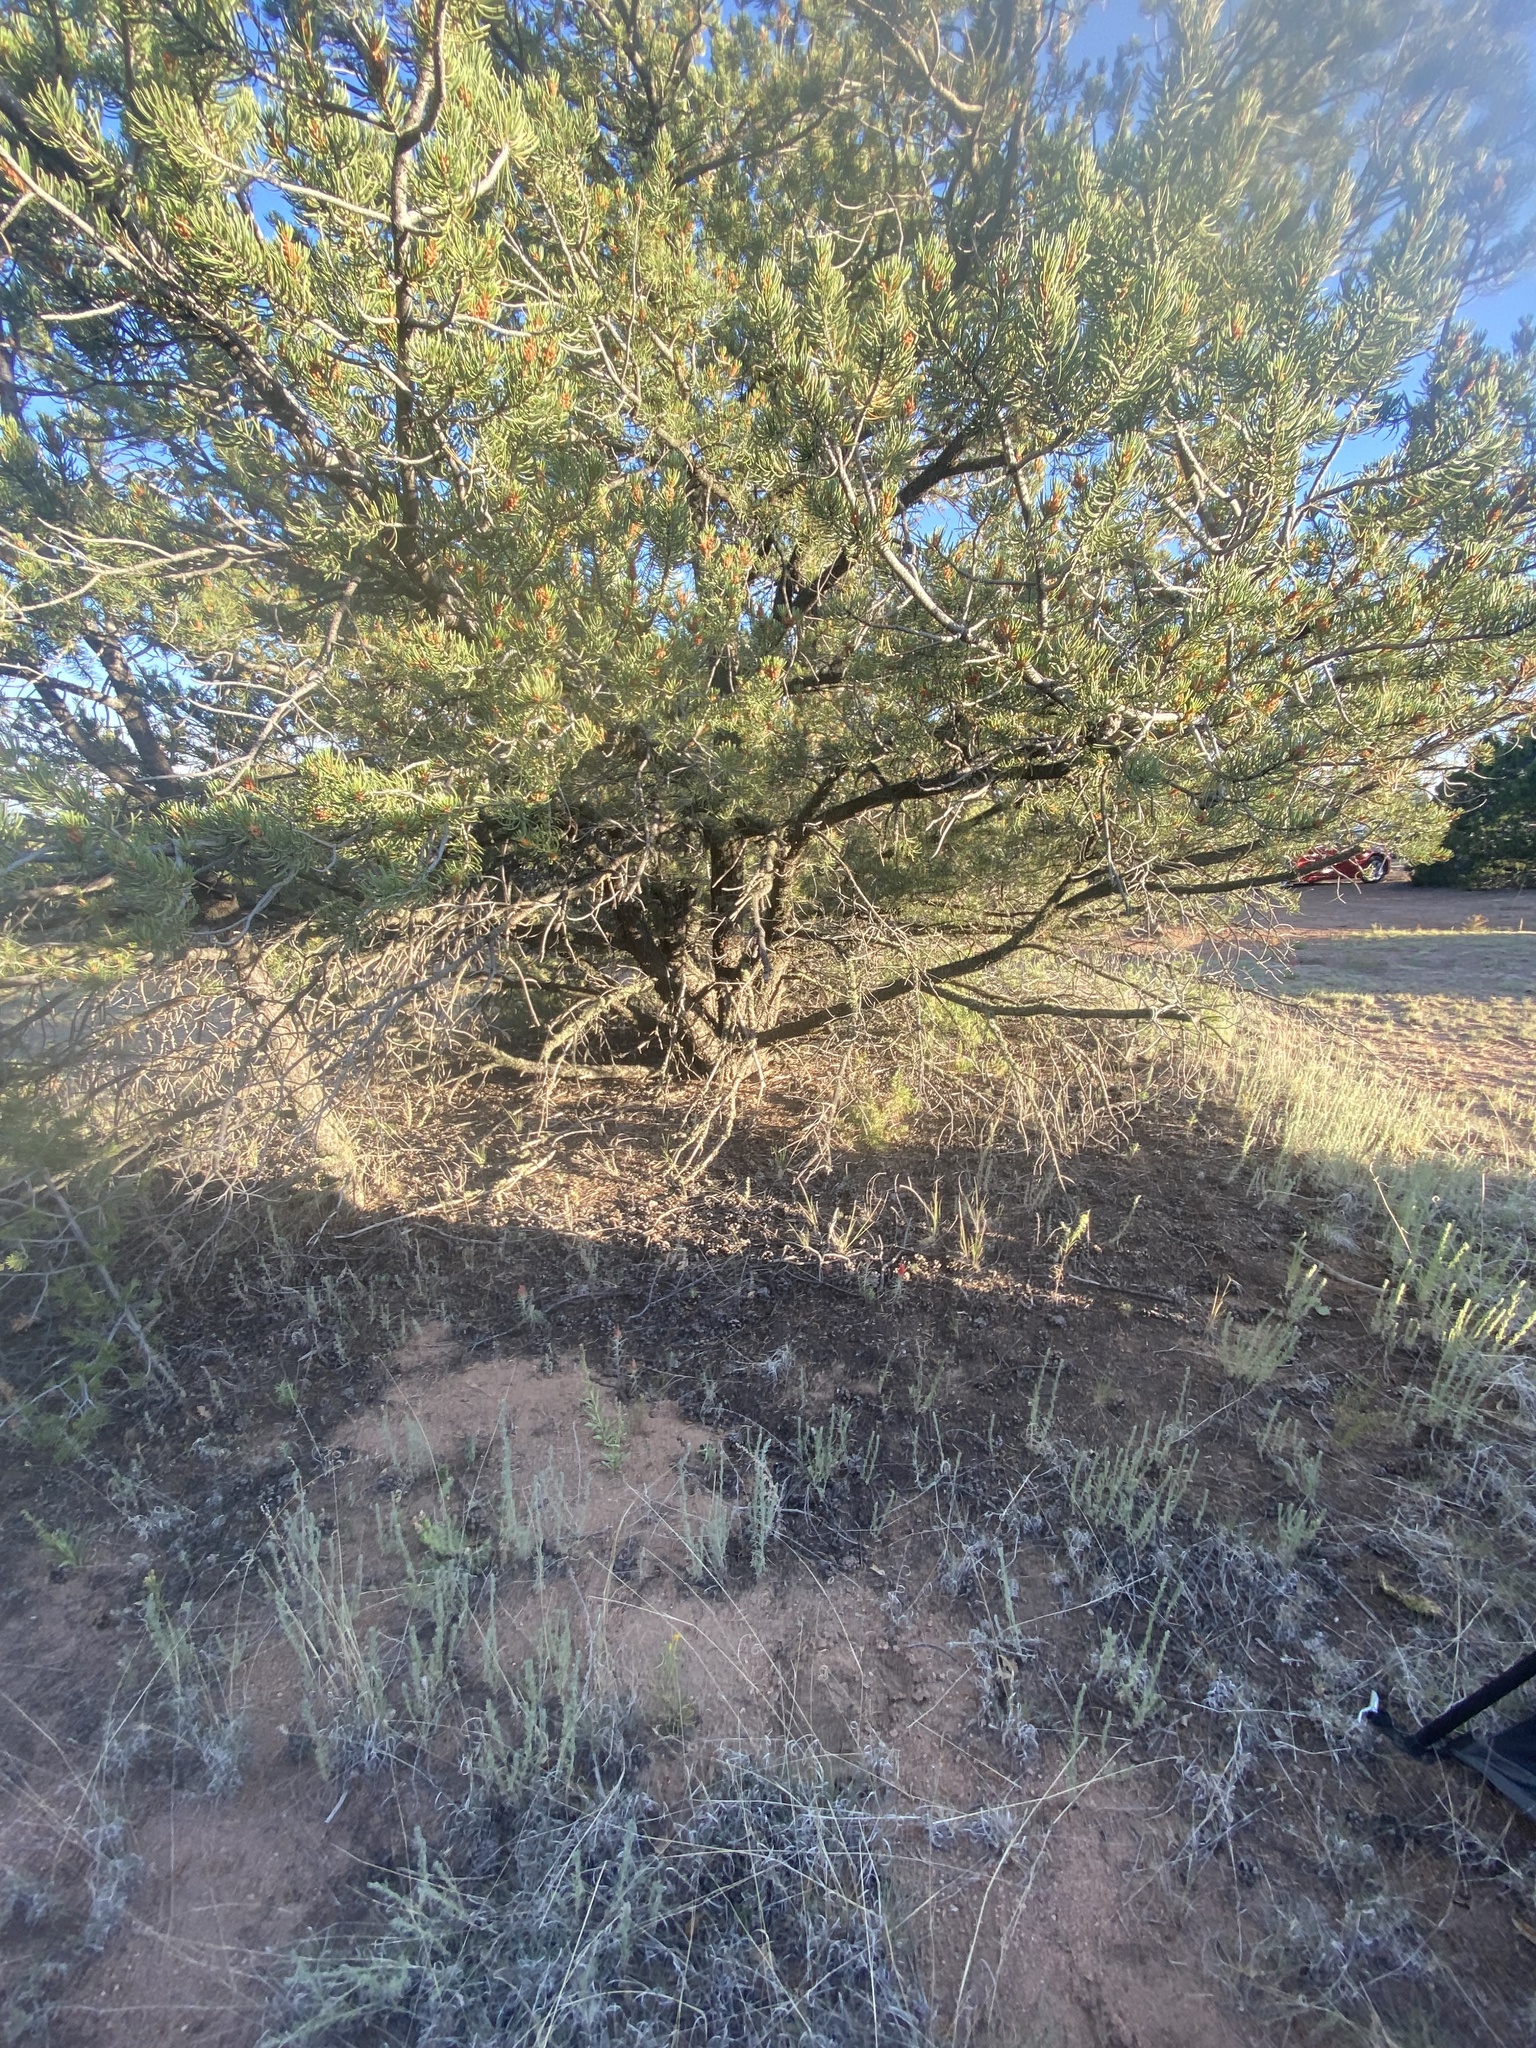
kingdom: Plantae
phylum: Tracheophyta
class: Pinopsida
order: Pinales
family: Pinaceae
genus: Pinus
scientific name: Pinus edulis
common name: Colorado pinyon
